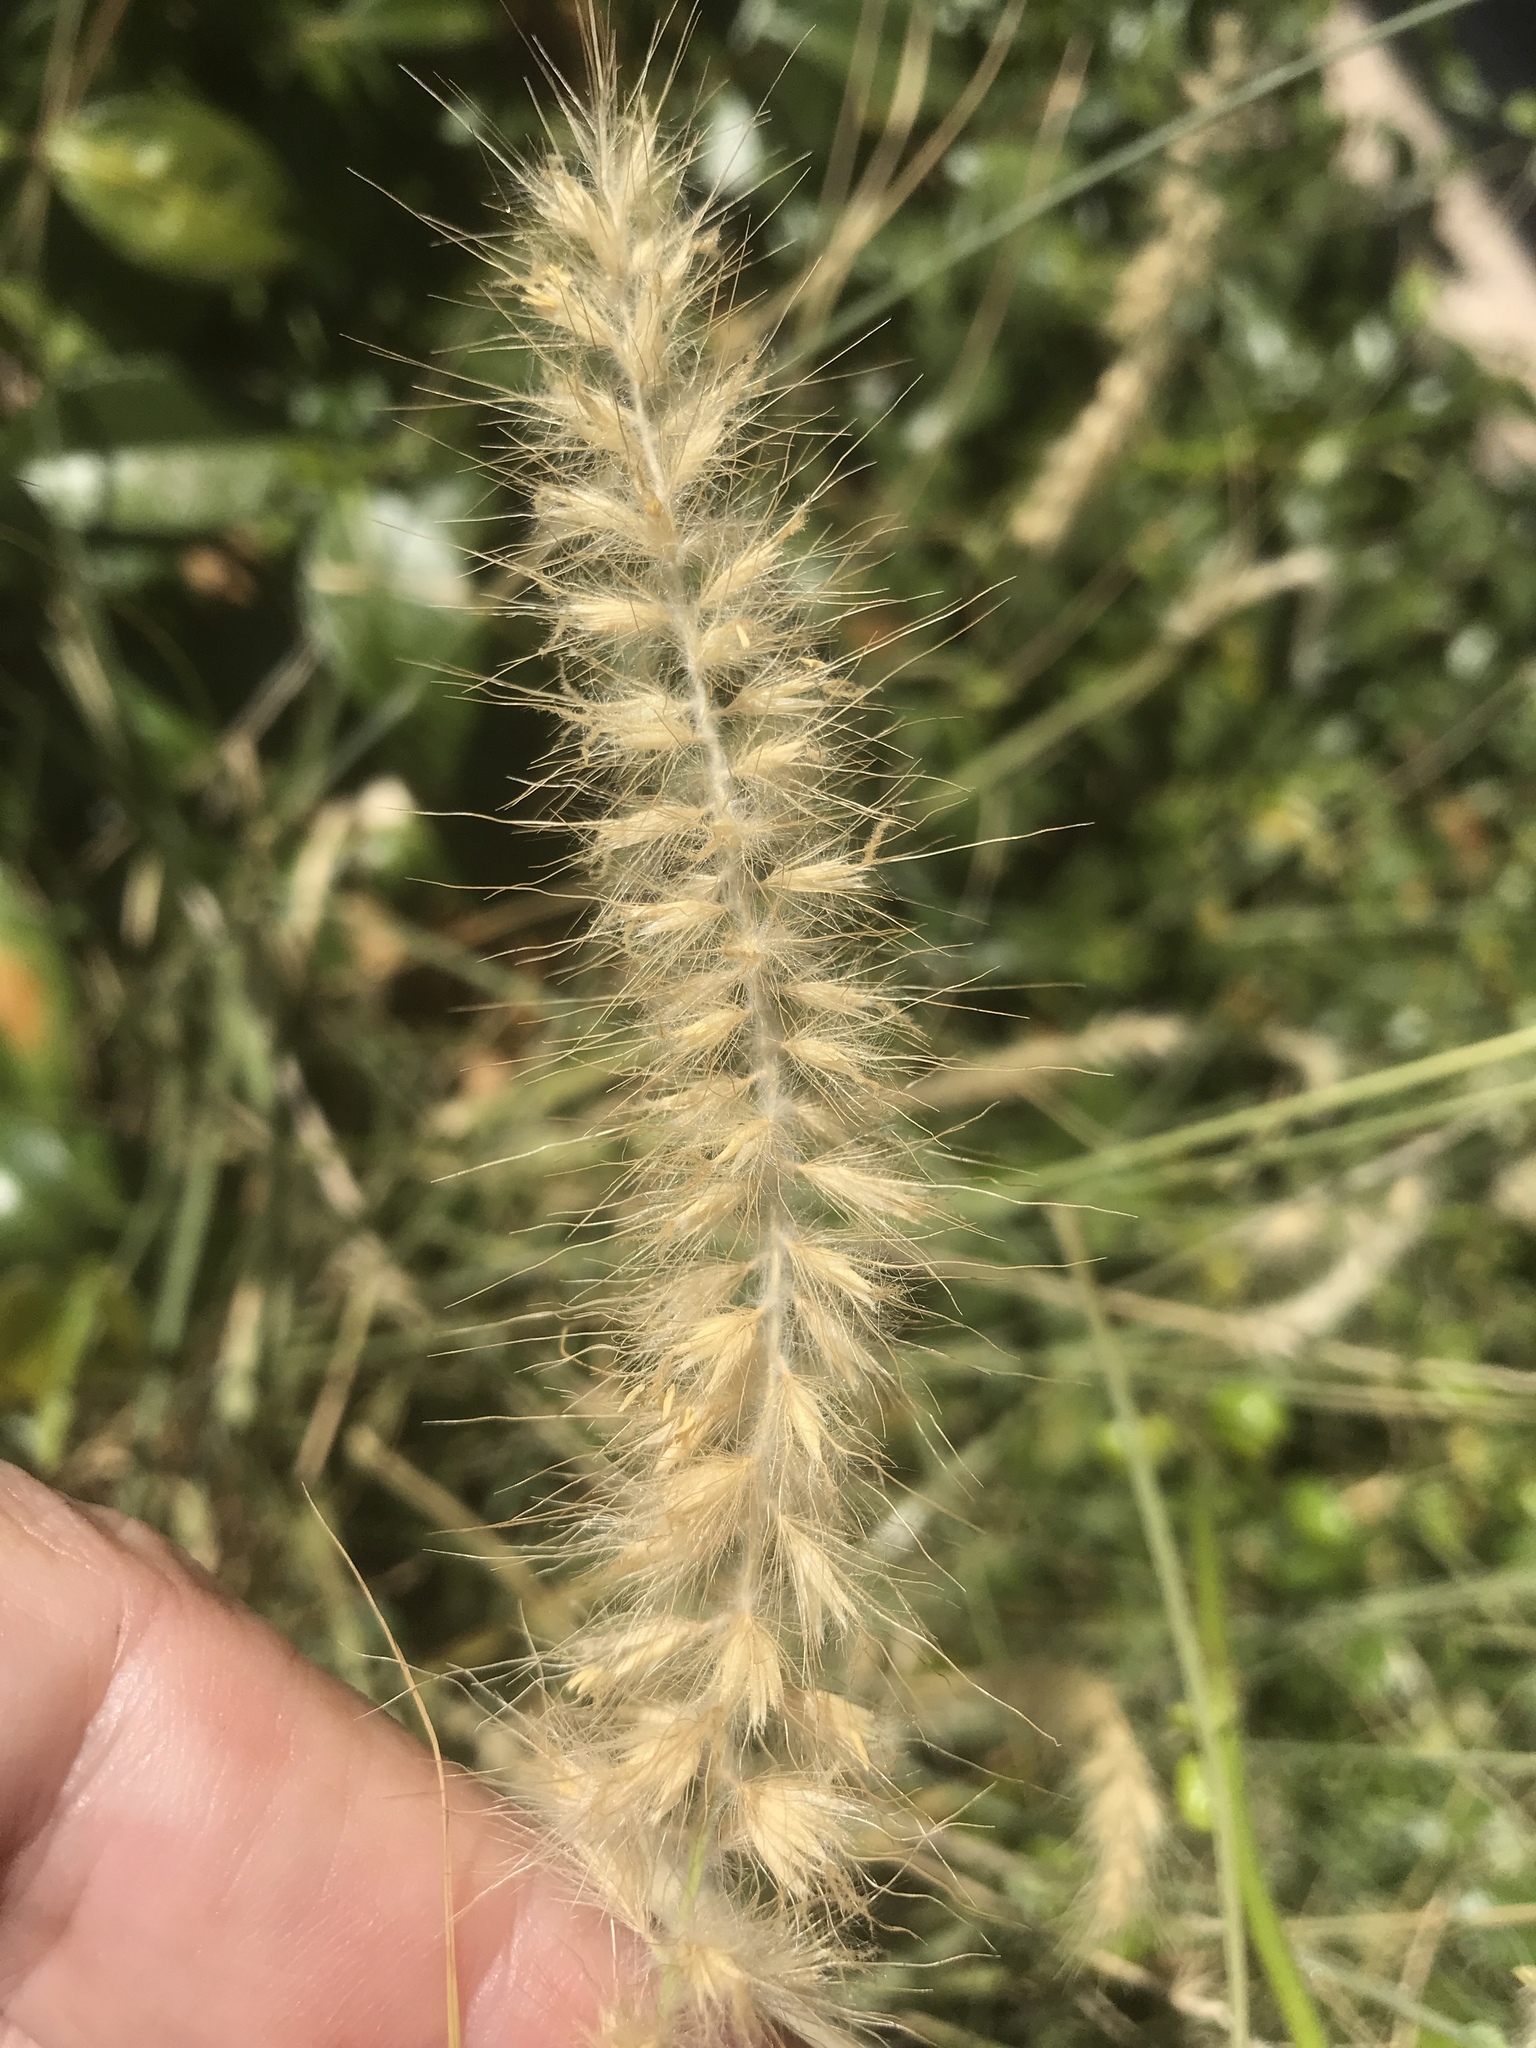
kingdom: Plantae
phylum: Tracheophyta
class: Liliopsida
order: Poales
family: Poaceae
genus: Cenchrus
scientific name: Cenchrus ciliaris
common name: Buffelgrass
